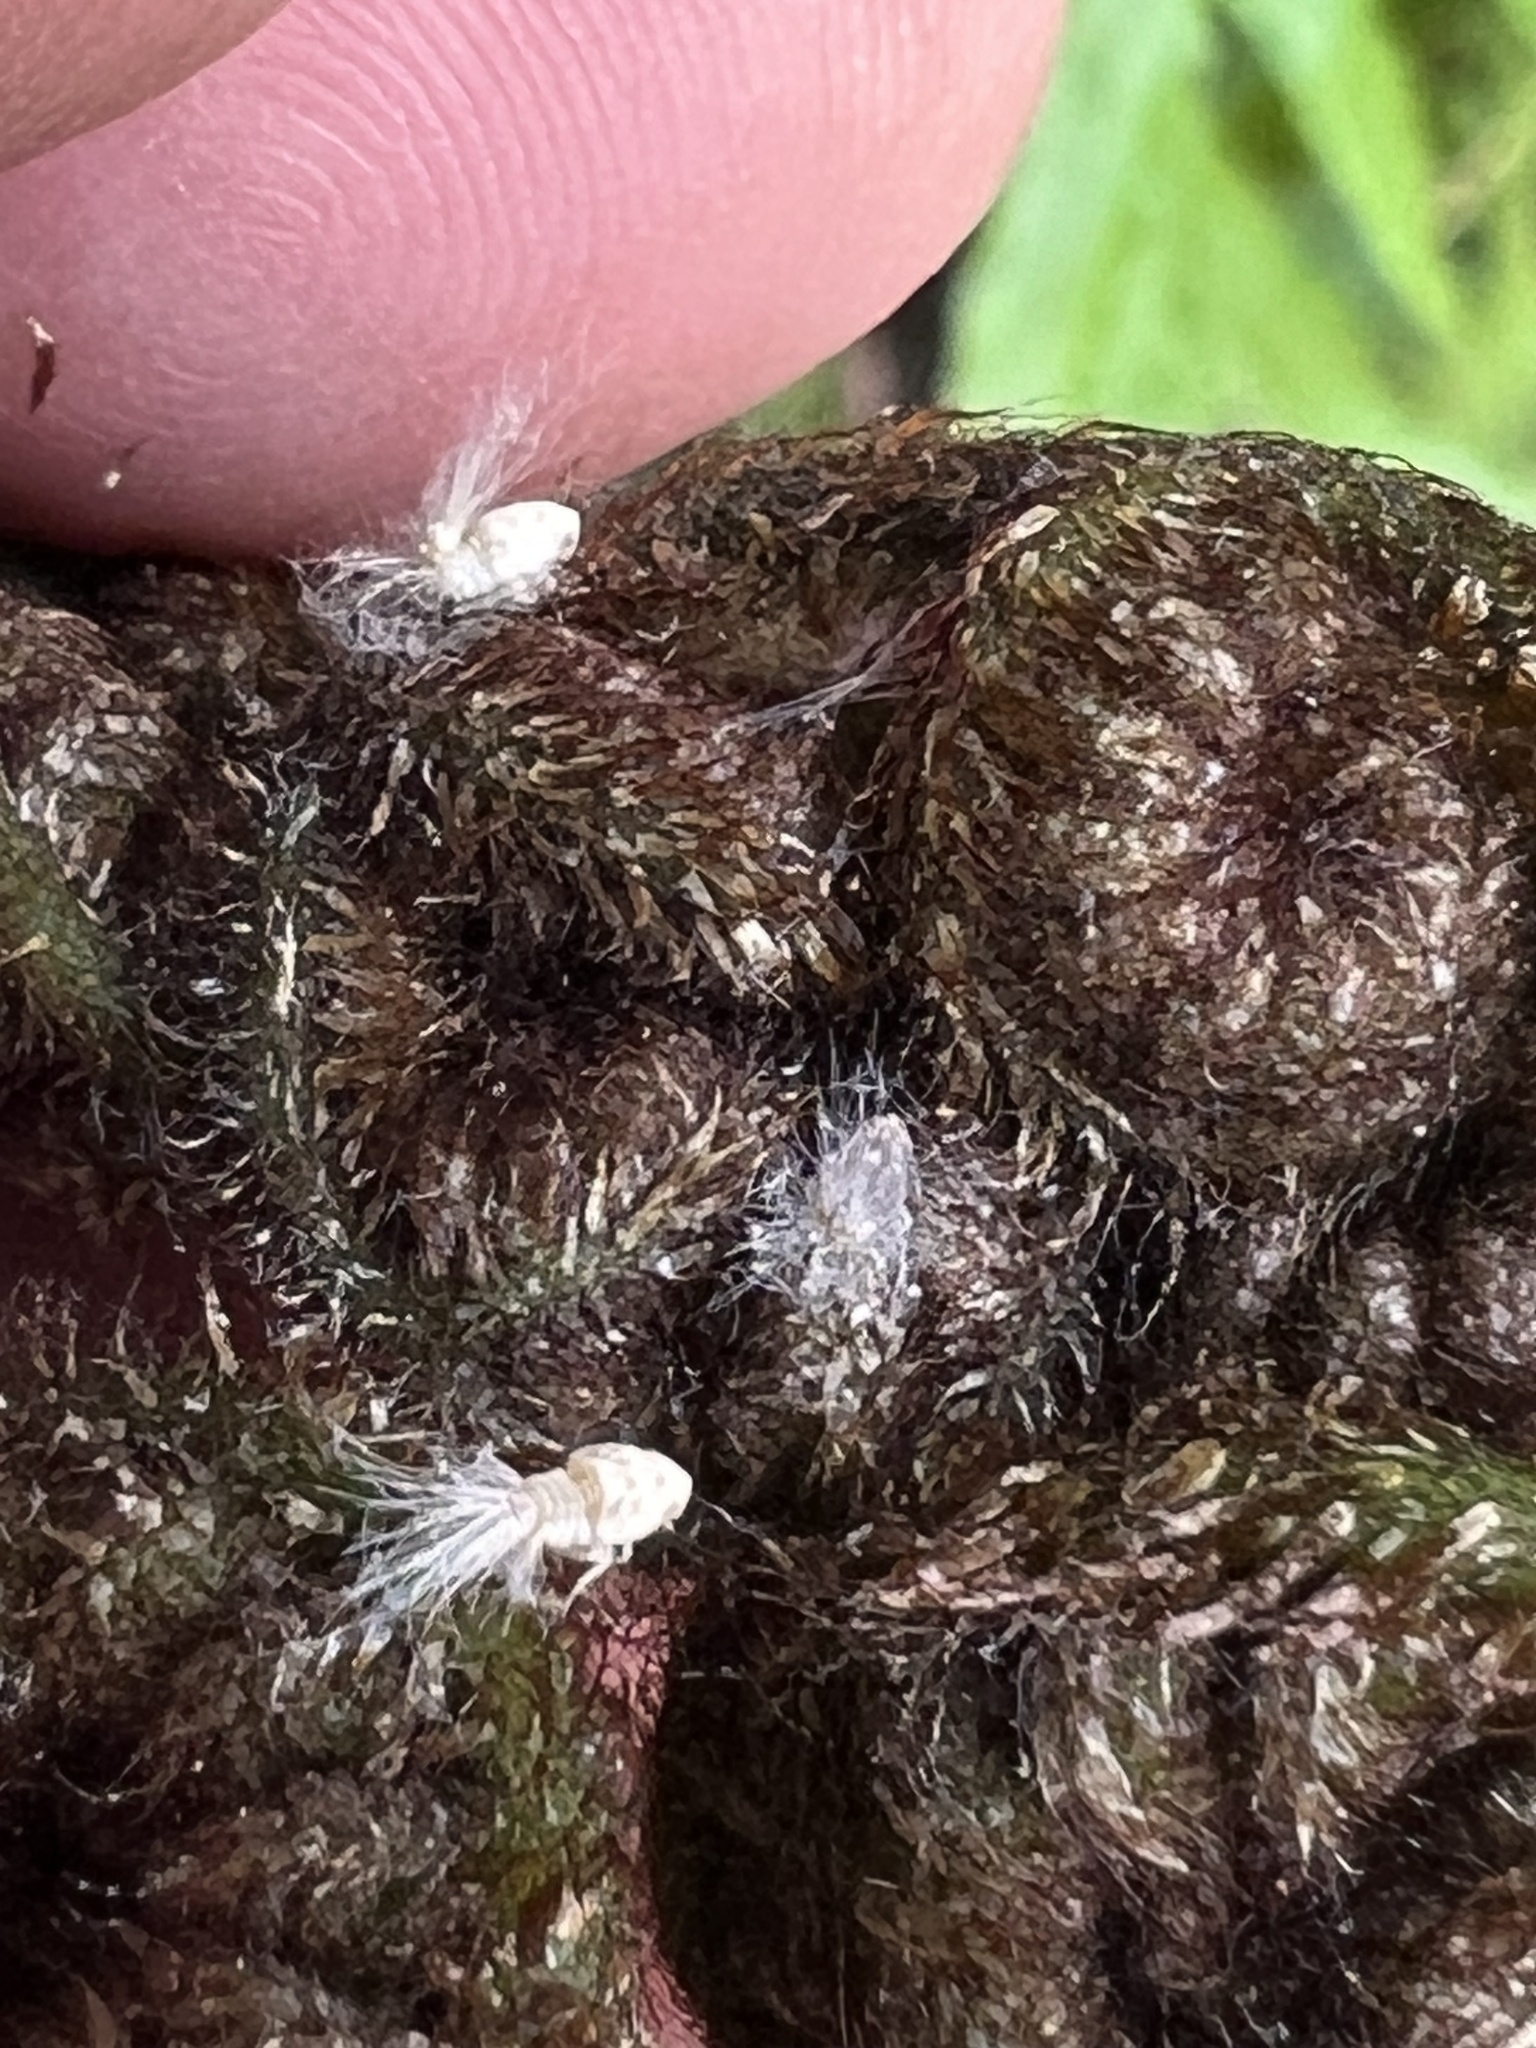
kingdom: Animalia
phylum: Arthropoda
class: Insecta
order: Hemiptera
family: Ricaniidae
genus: Scolypopa
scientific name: Scolypopa australis
